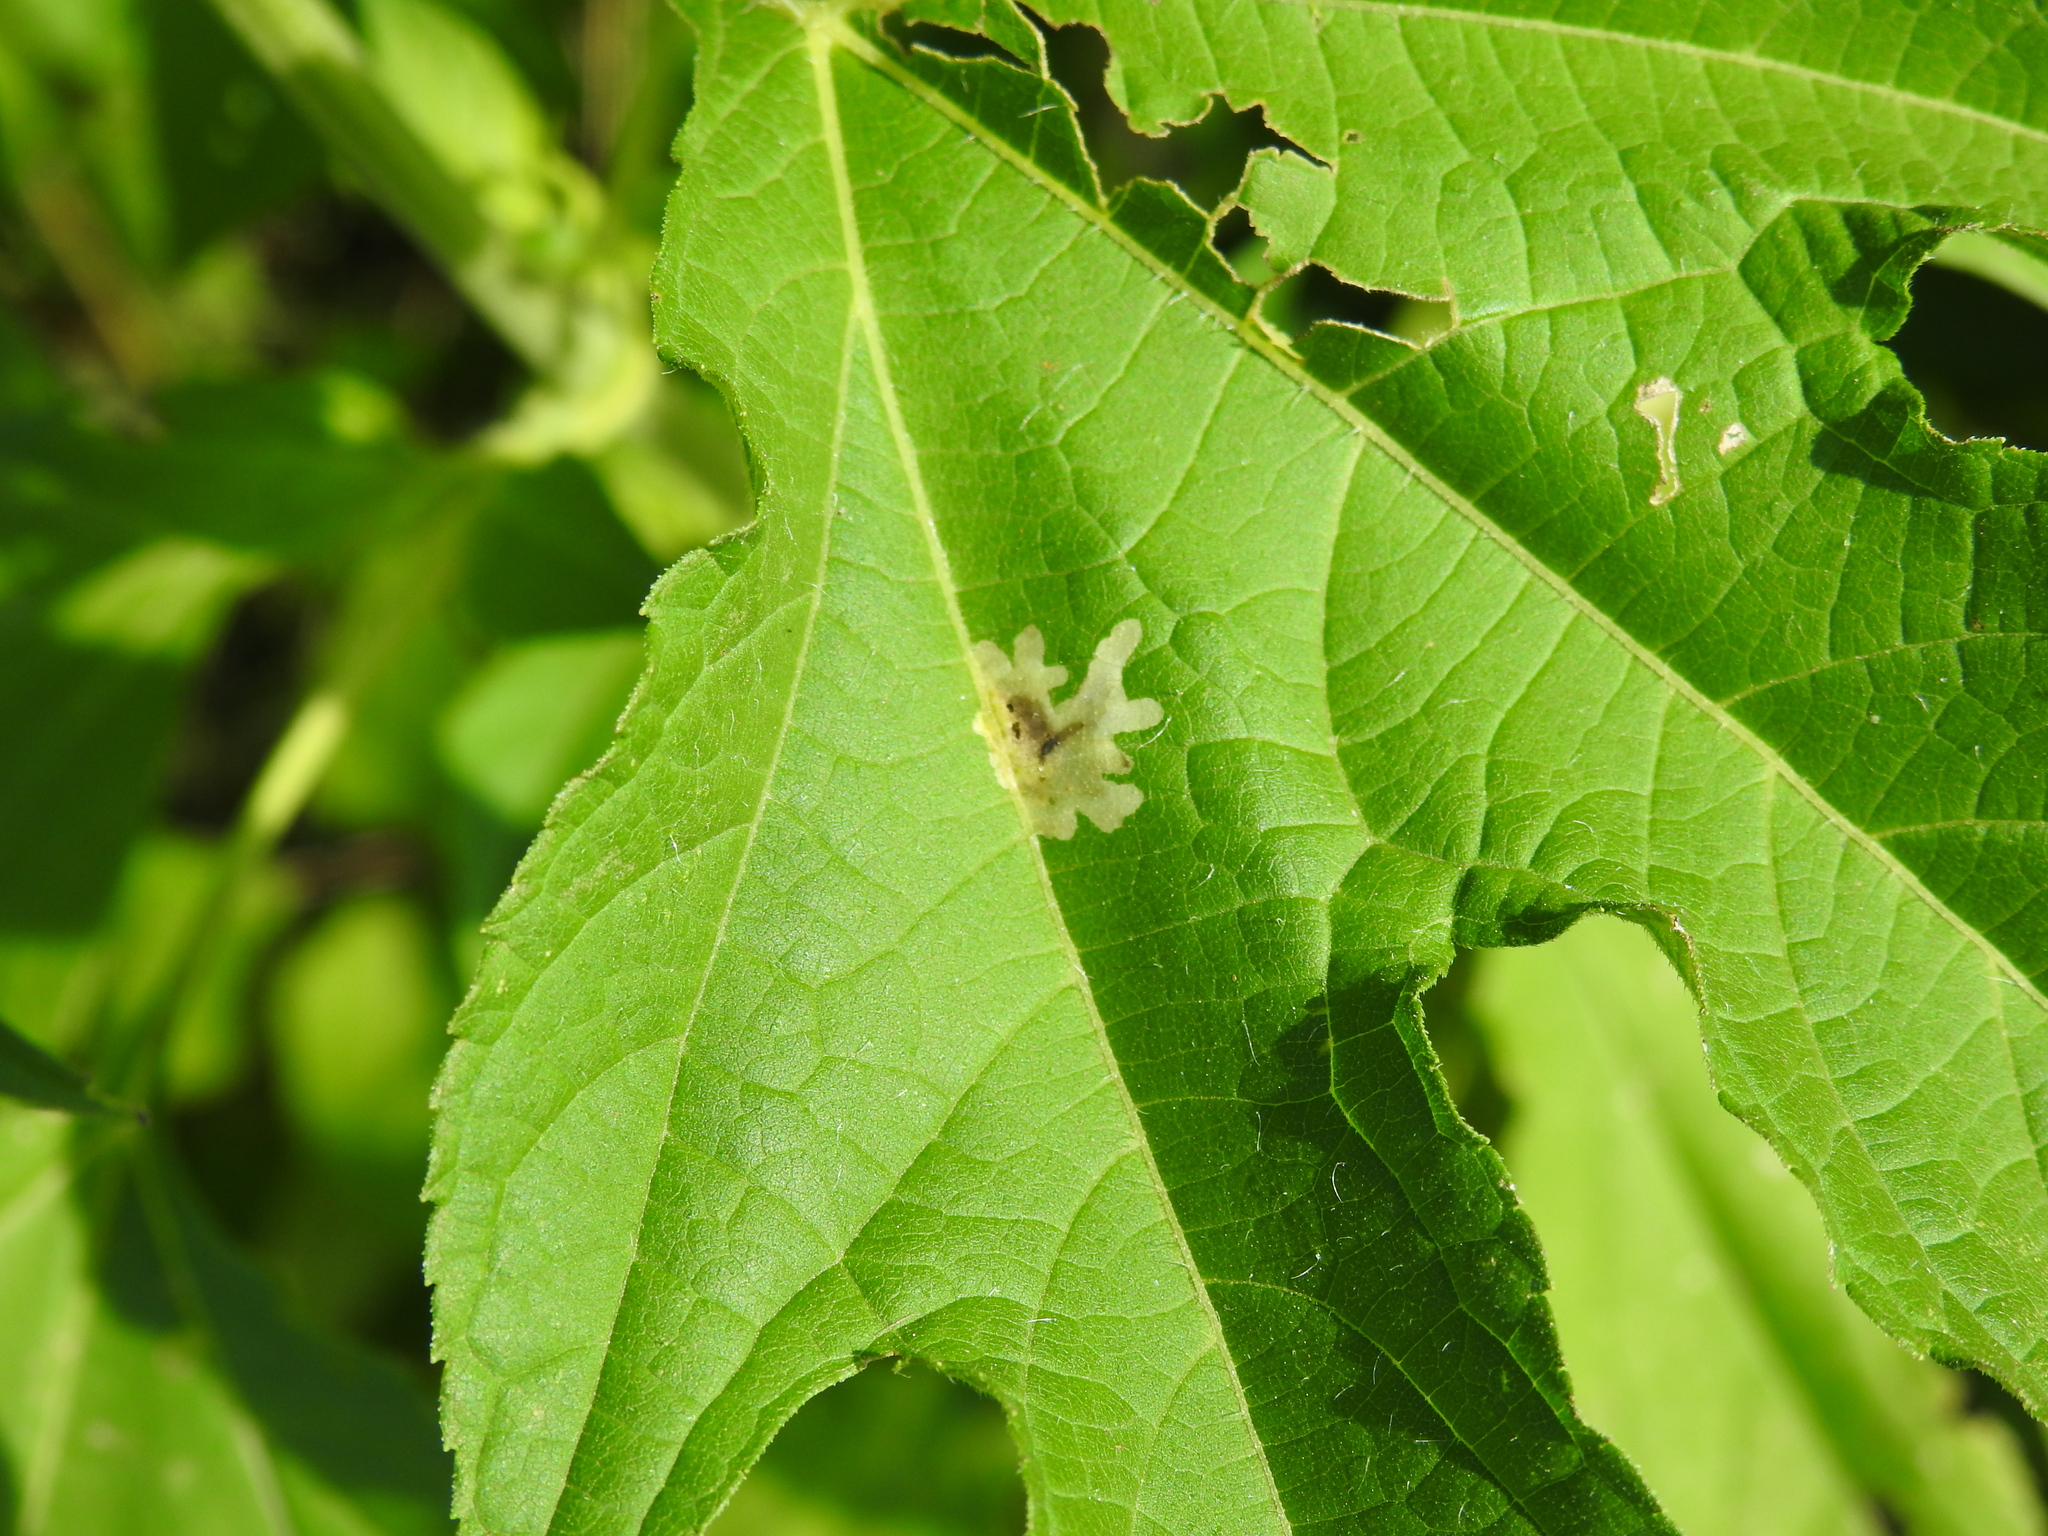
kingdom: Animalia
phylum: Arthropoda
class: Insecta
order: Diptera
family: Agromyzidae
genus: Calycomyza
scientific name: Calycomyza platyptera
